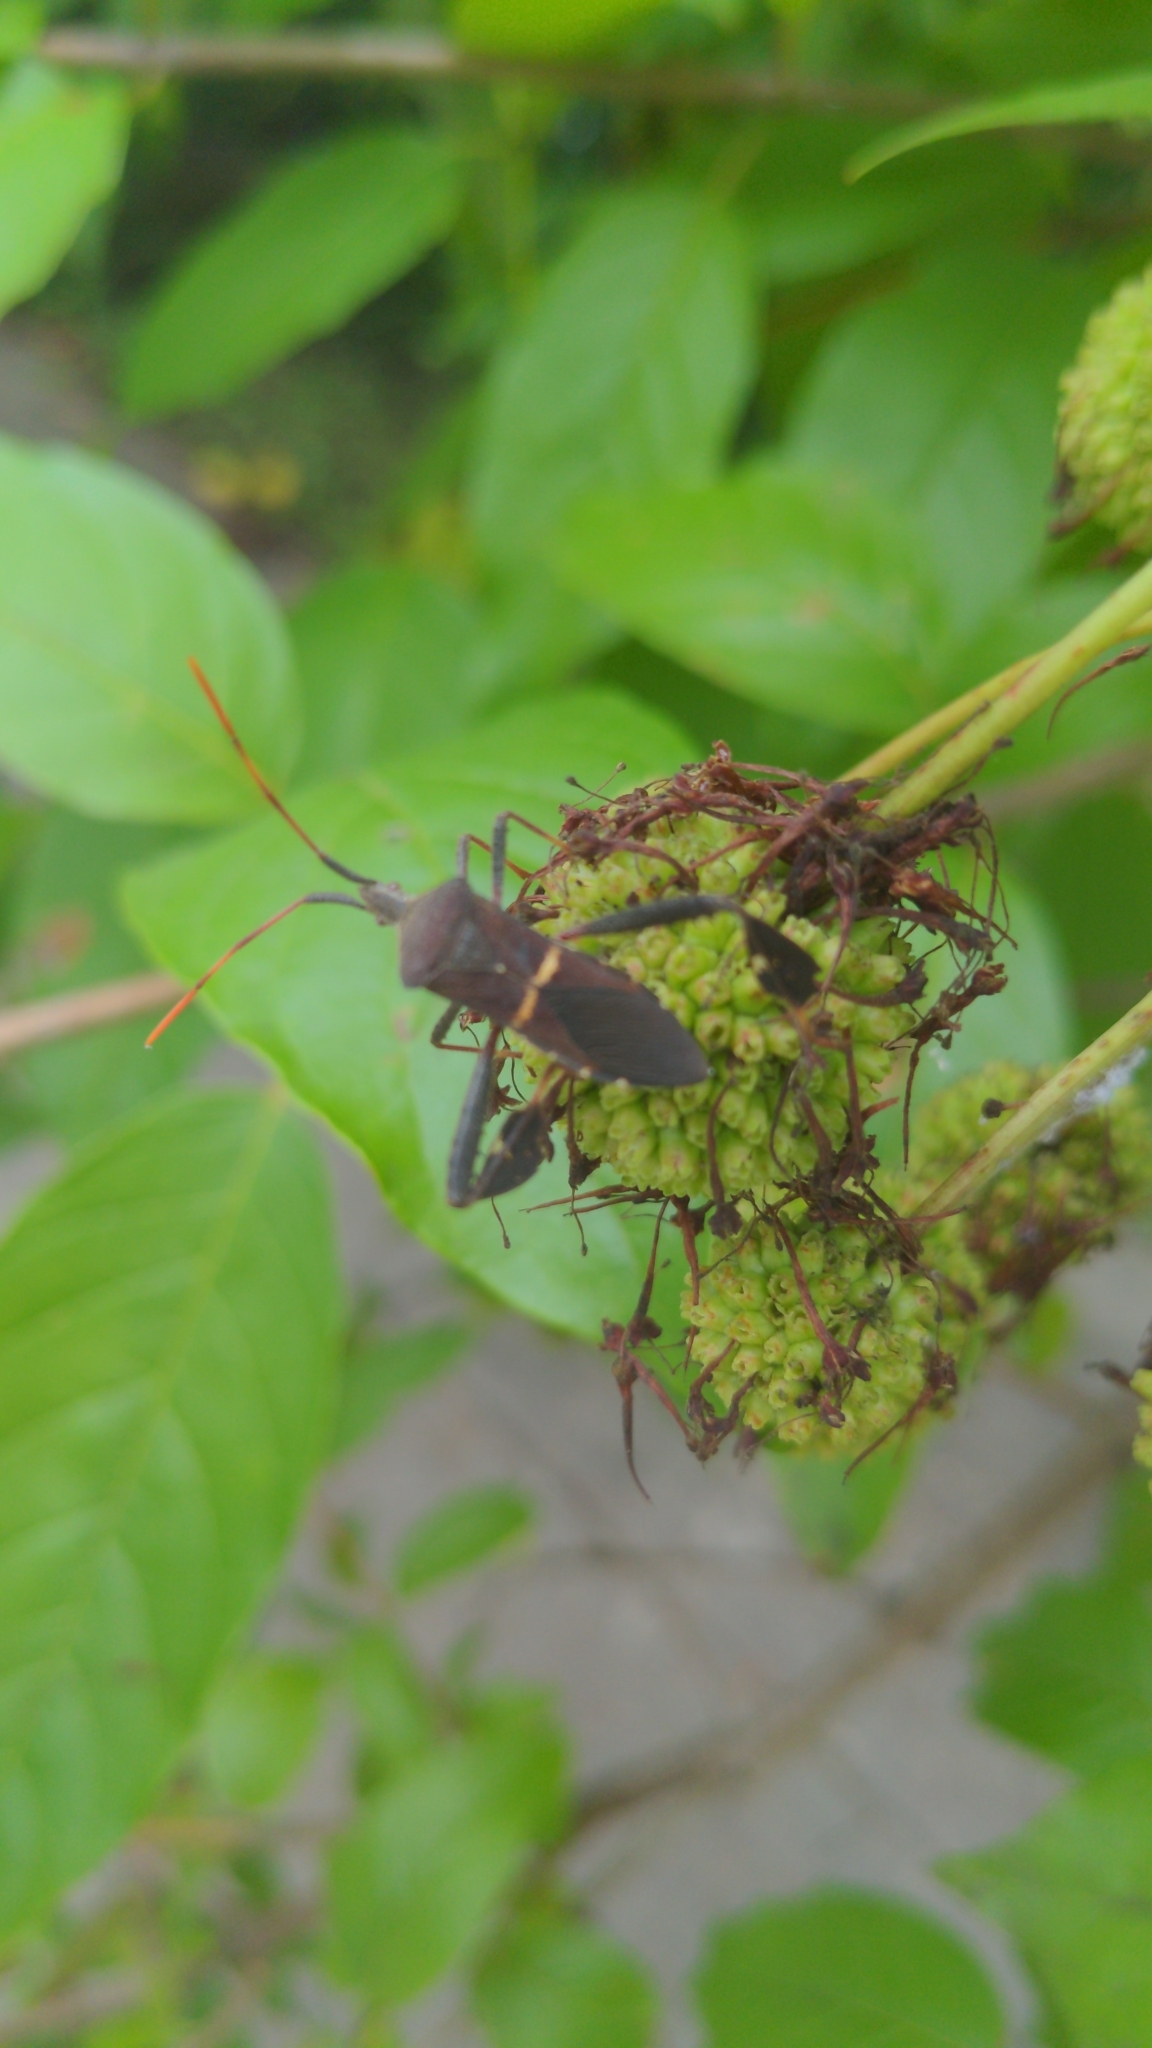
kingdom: Animalia
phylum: Arthropoda
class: Insecta
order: Hemiptera
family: Coreidae
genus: Leptoglossus
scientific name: Leptoglossus phyllopus
